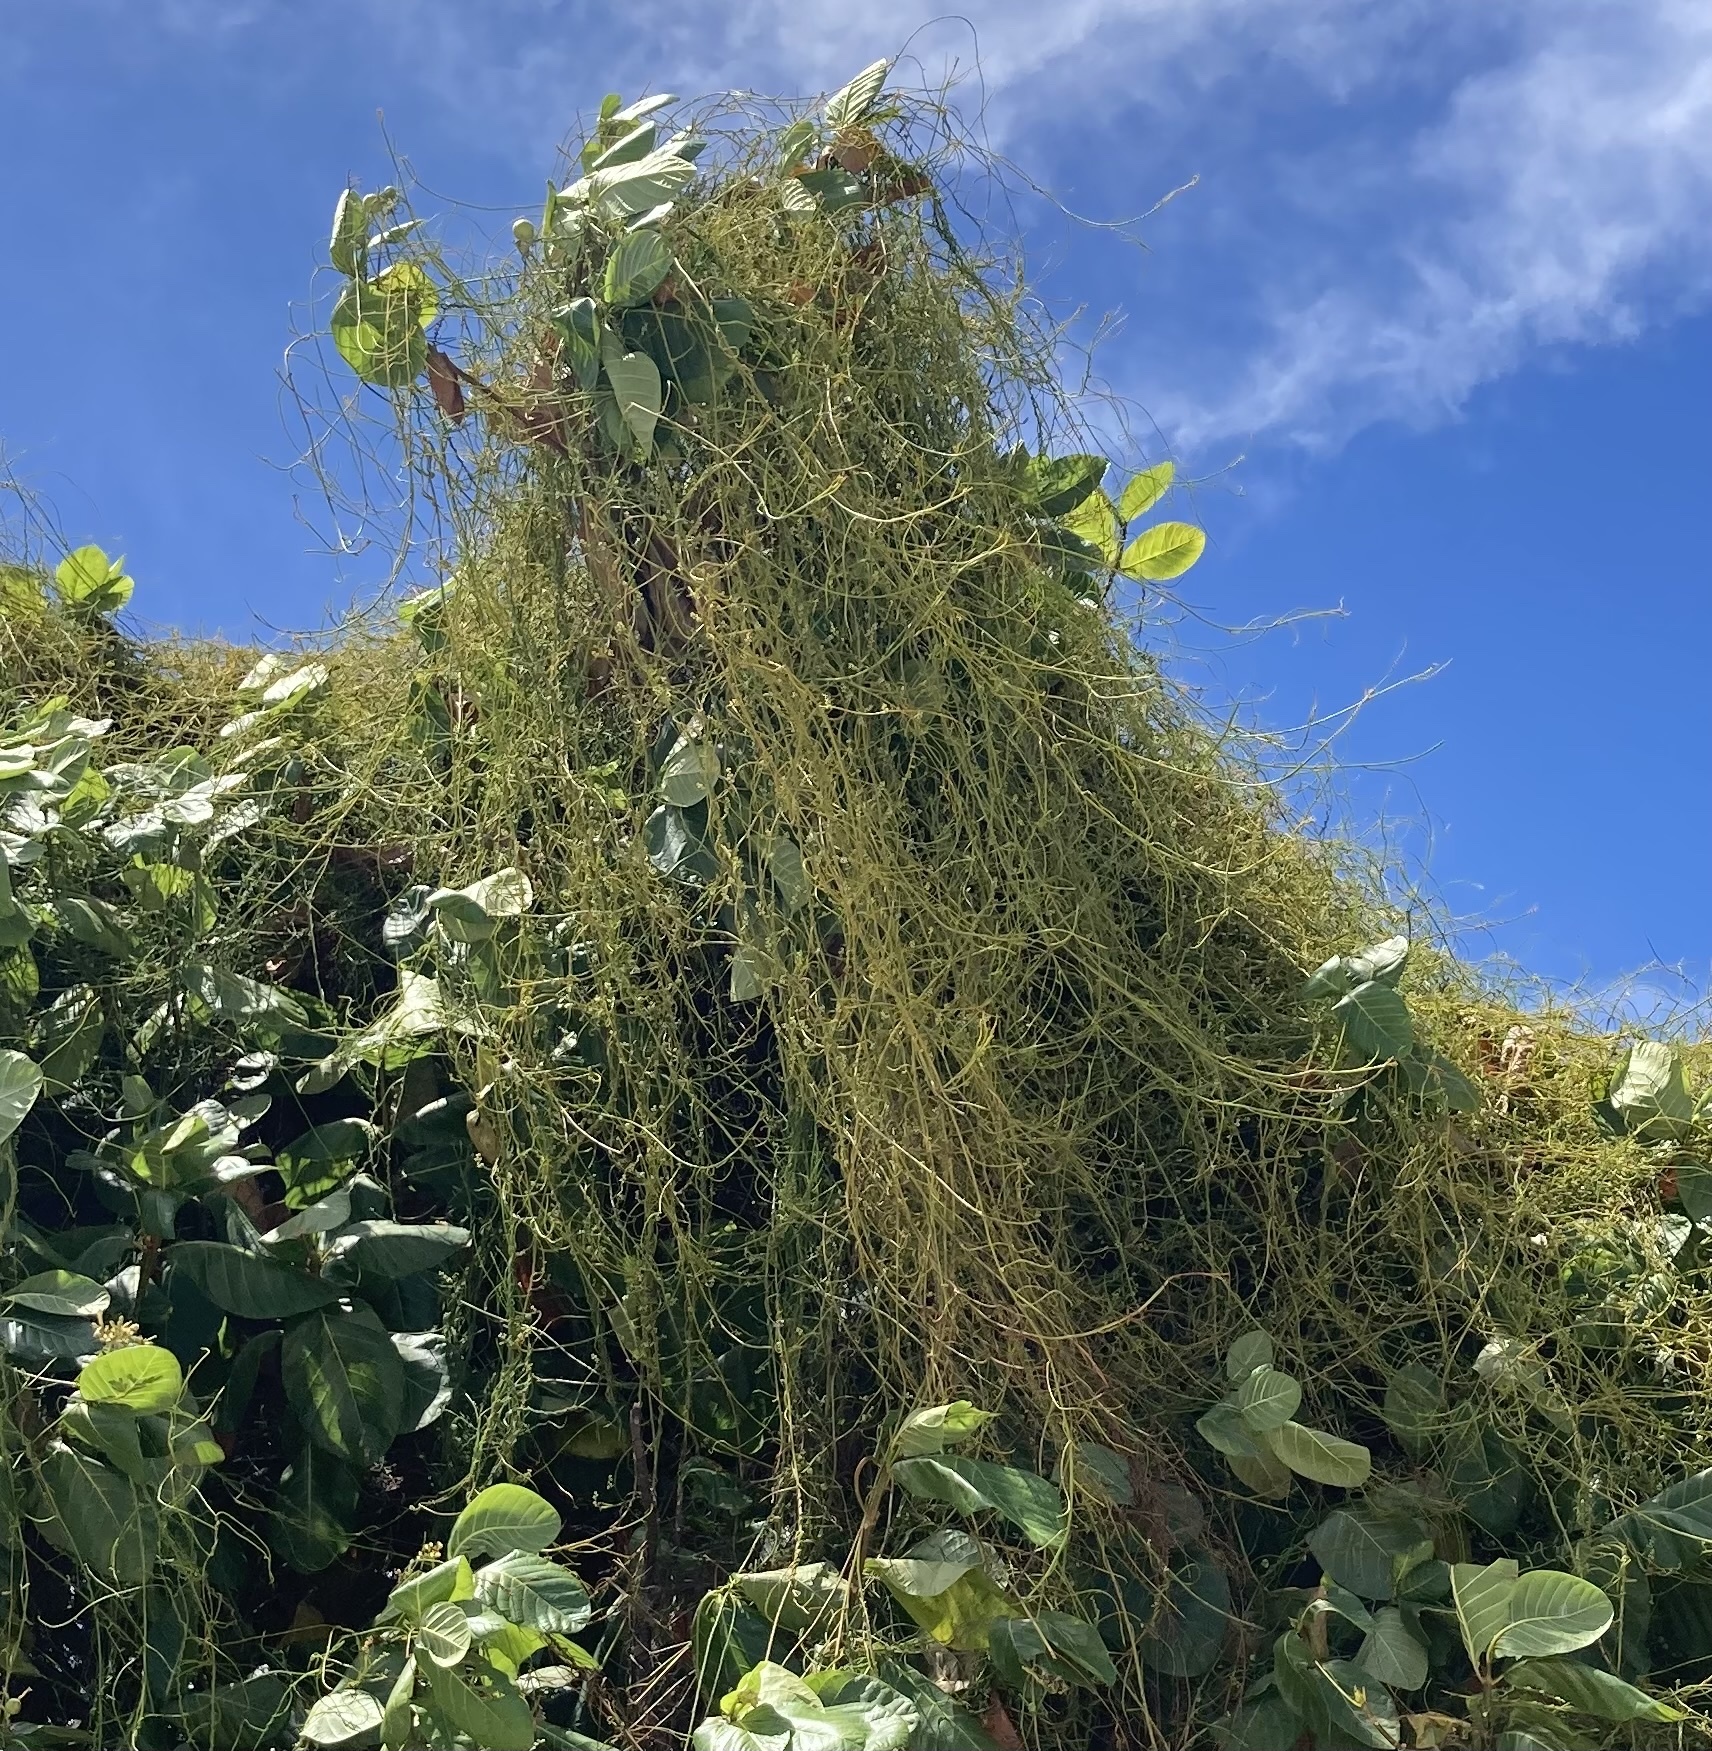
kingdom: Plantae
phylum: Tracheophyta
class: Magnoliopsida
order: Laurales
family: Lauraceae
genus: Cassytha
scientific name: Cassytha filiformis
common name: Dodder-laurel
